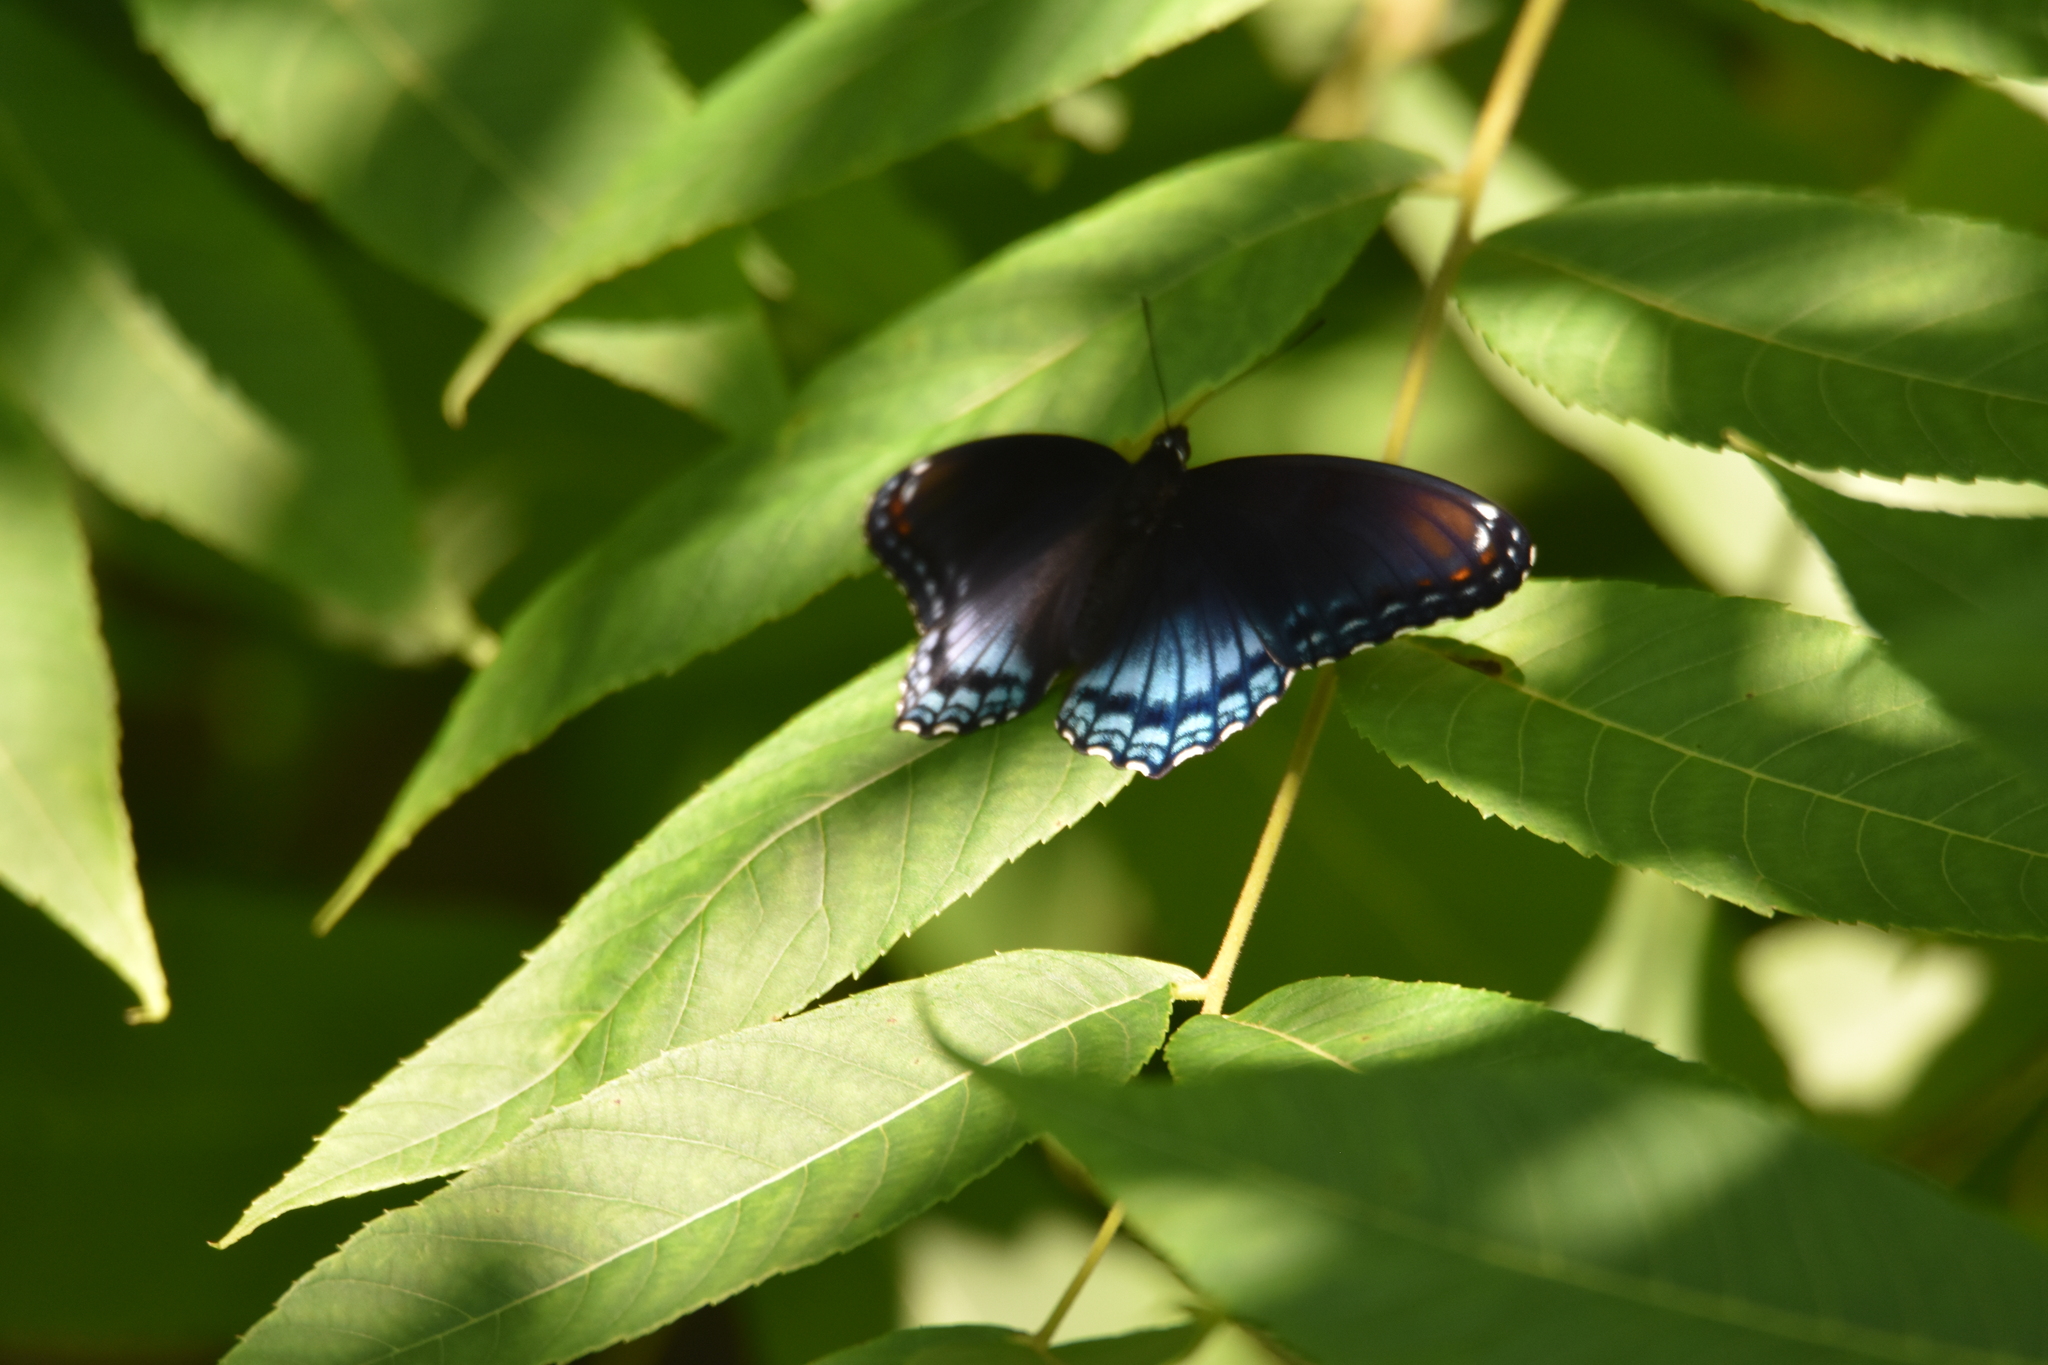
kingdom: Animalia
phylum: Arthropoda
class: Insecta
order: Lepidoptera
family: Nymphalidae
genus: Limenitis
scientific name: Limenitis astyanax
